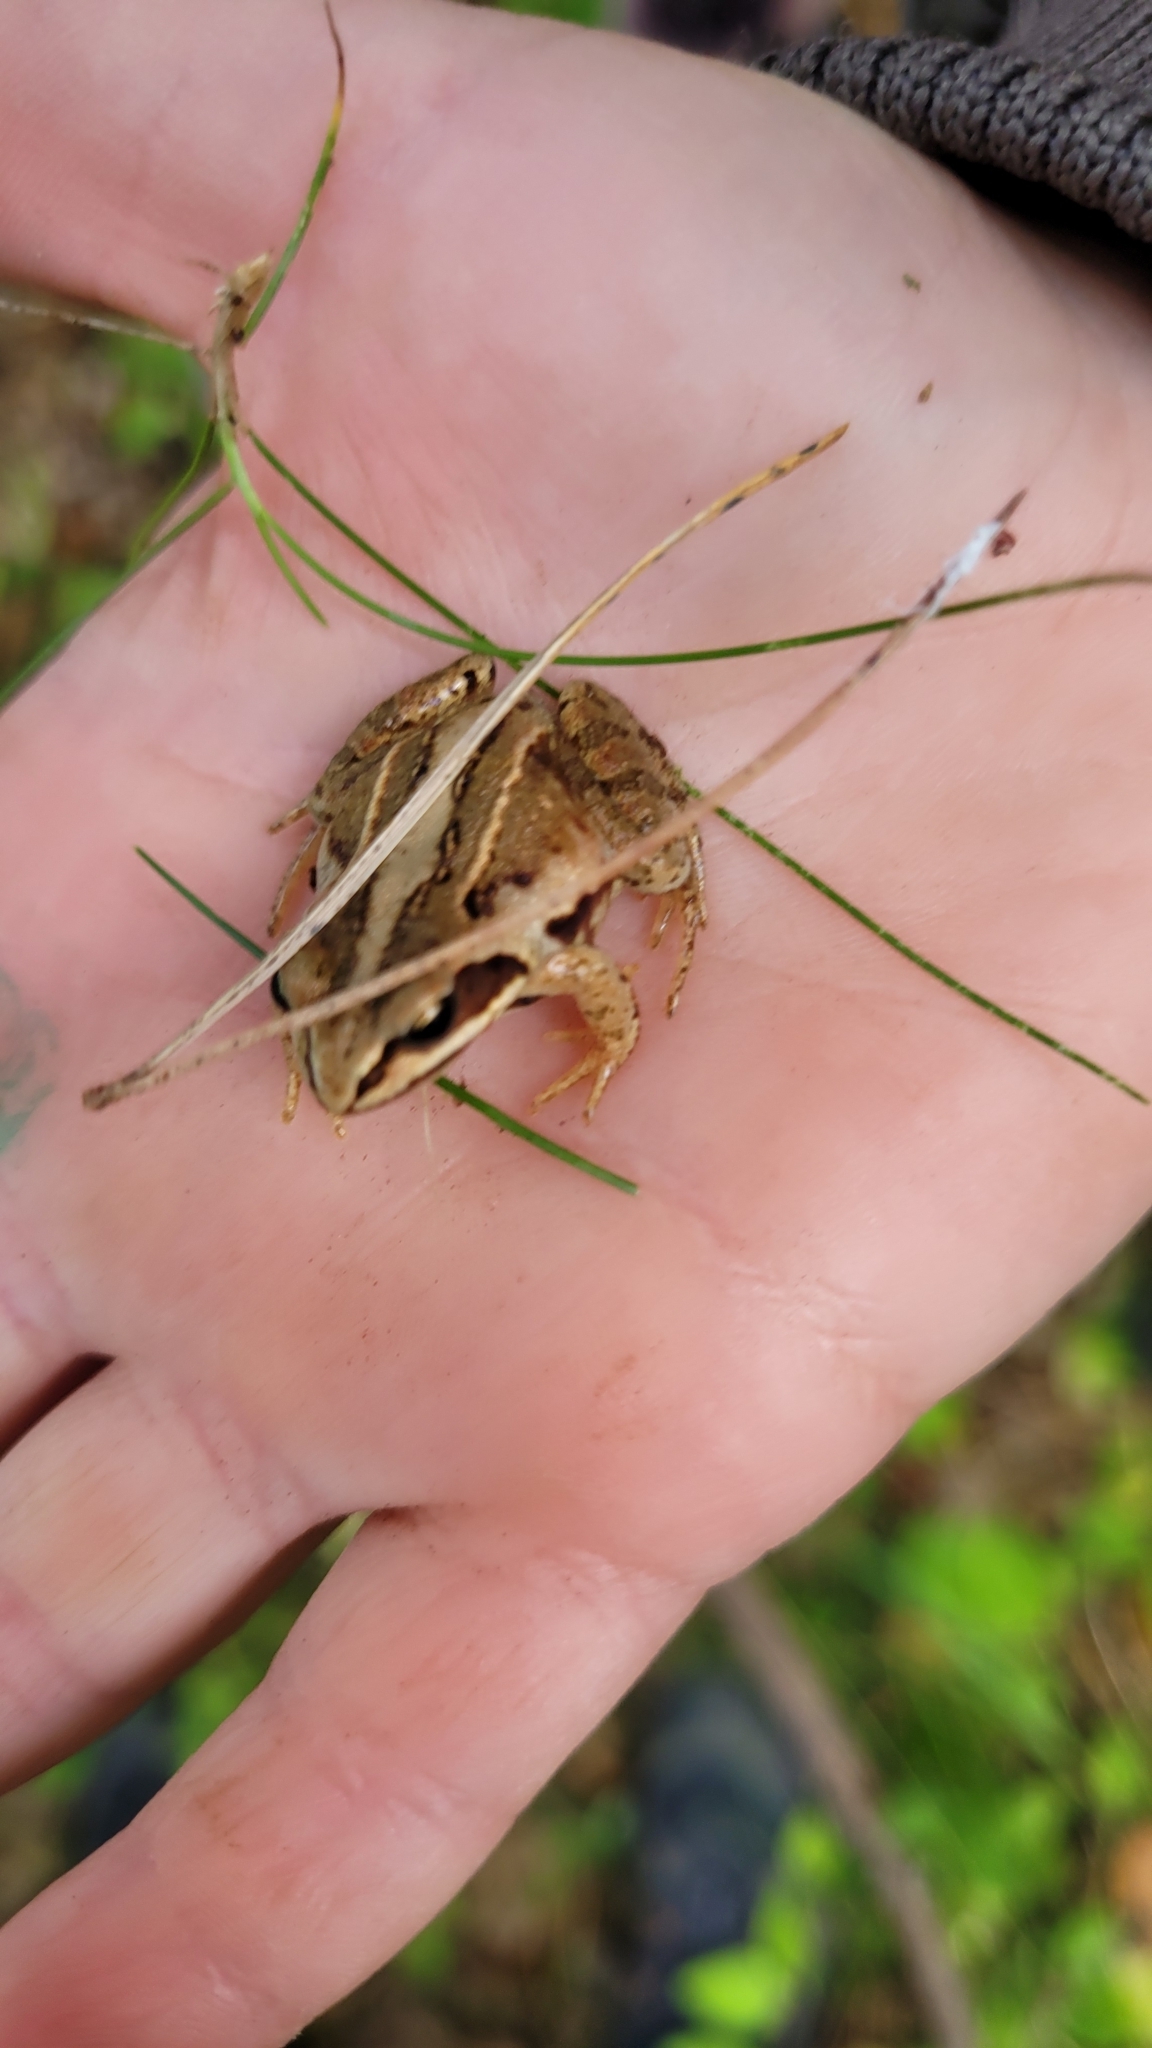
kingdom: Animalia
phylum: Chordata
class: Amphibia
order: Anura
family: Ranidae
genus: Rana
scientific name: Rana arvalis
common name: Moor frog
